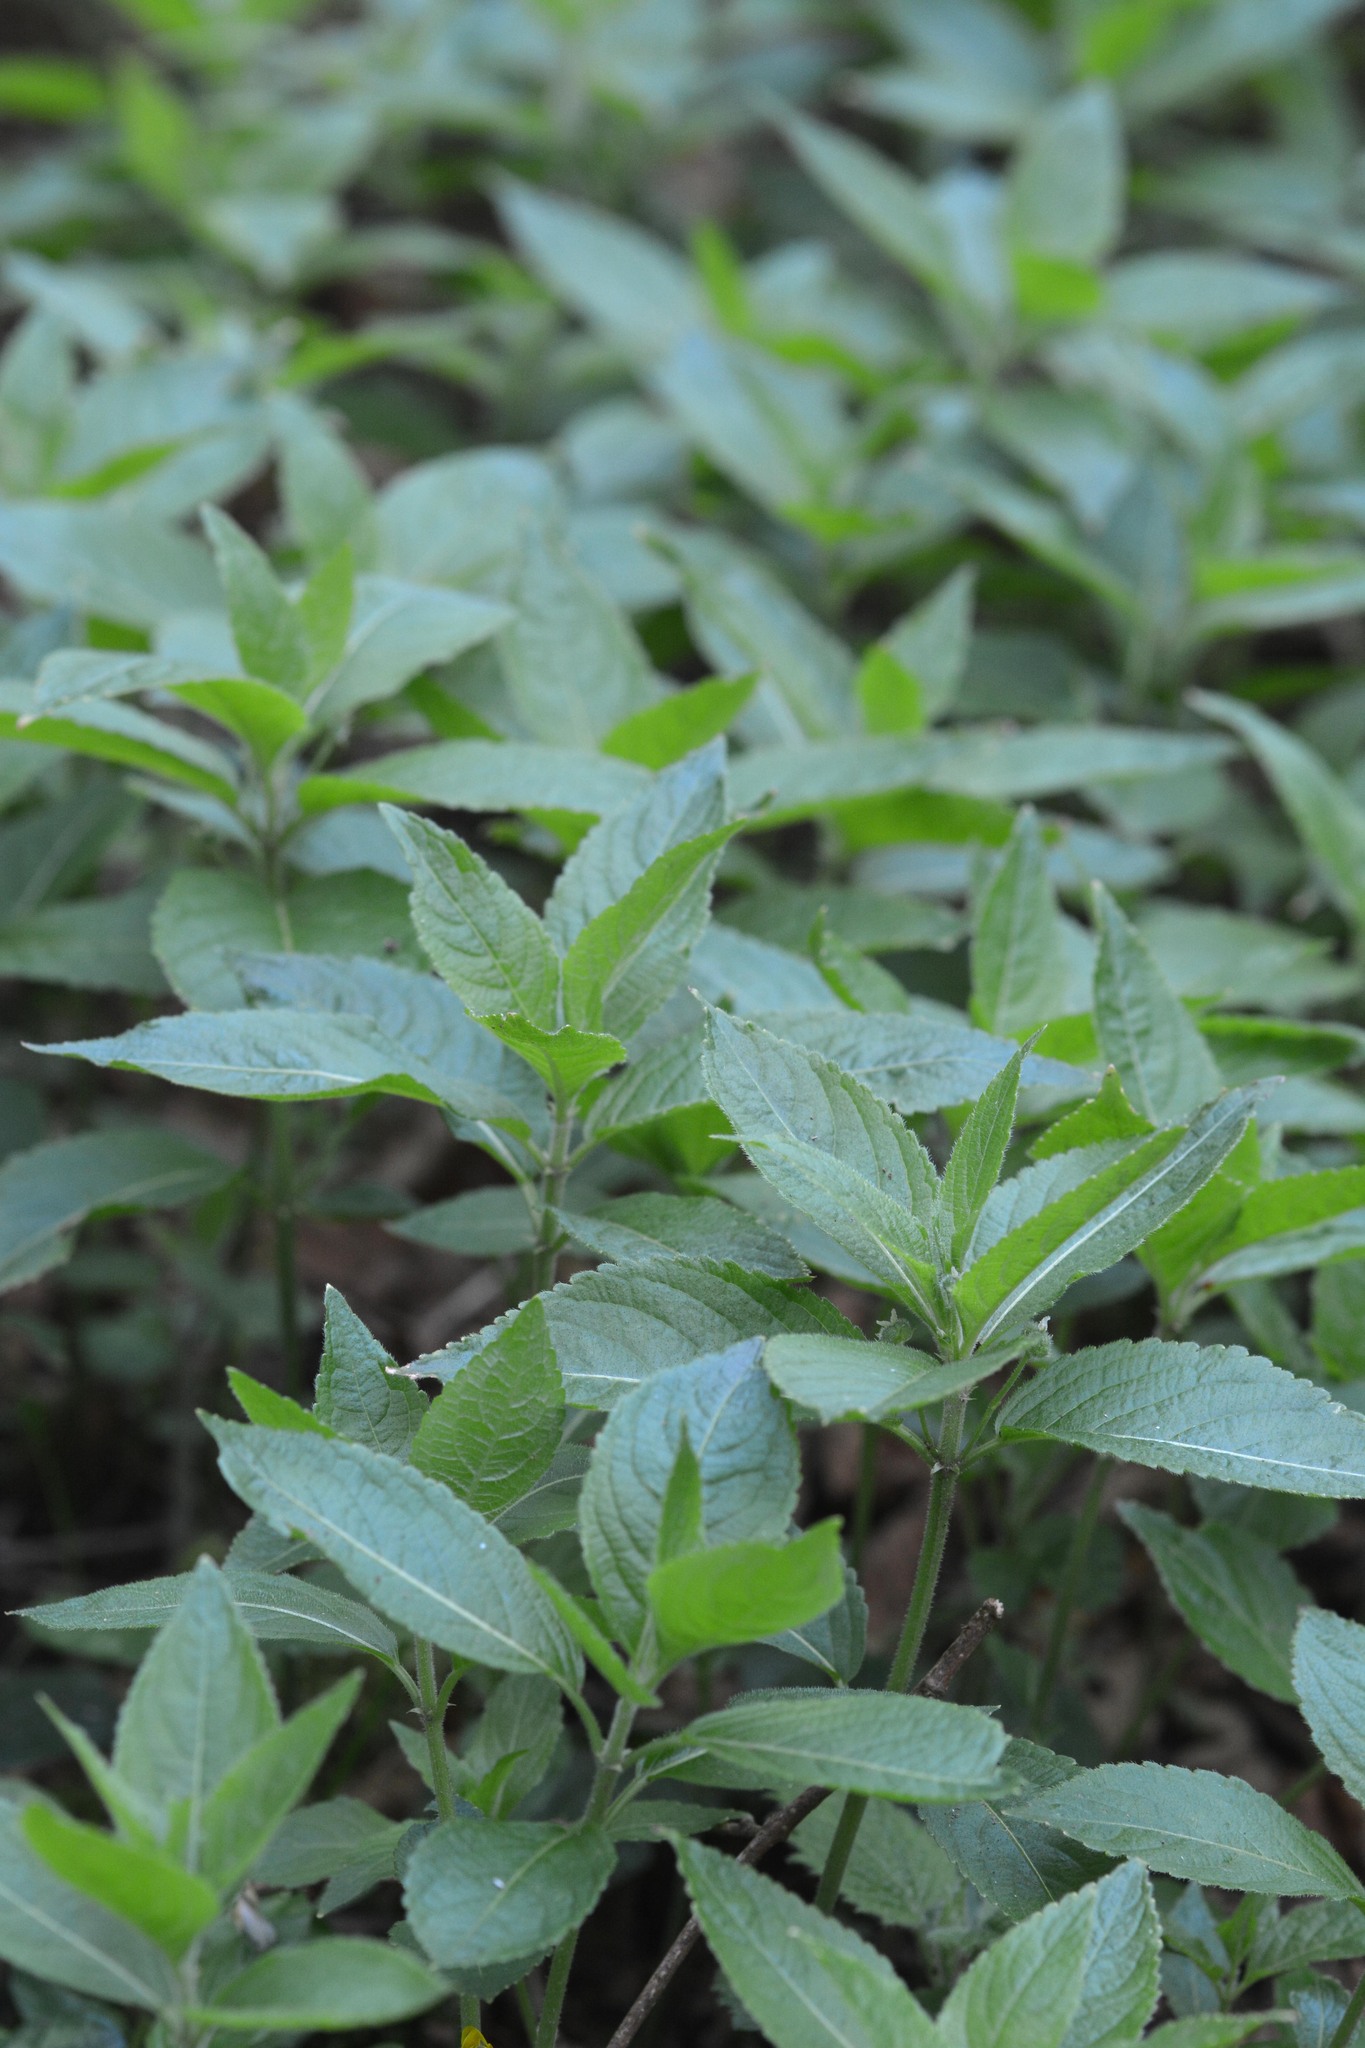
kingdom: Plantae
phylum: Tracheophyta
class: Magnoliopsida
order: Malpighiales
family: Euphorbiaceae
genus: Mercurialis
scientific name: Mercurialis perennis
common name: Dog mercury
